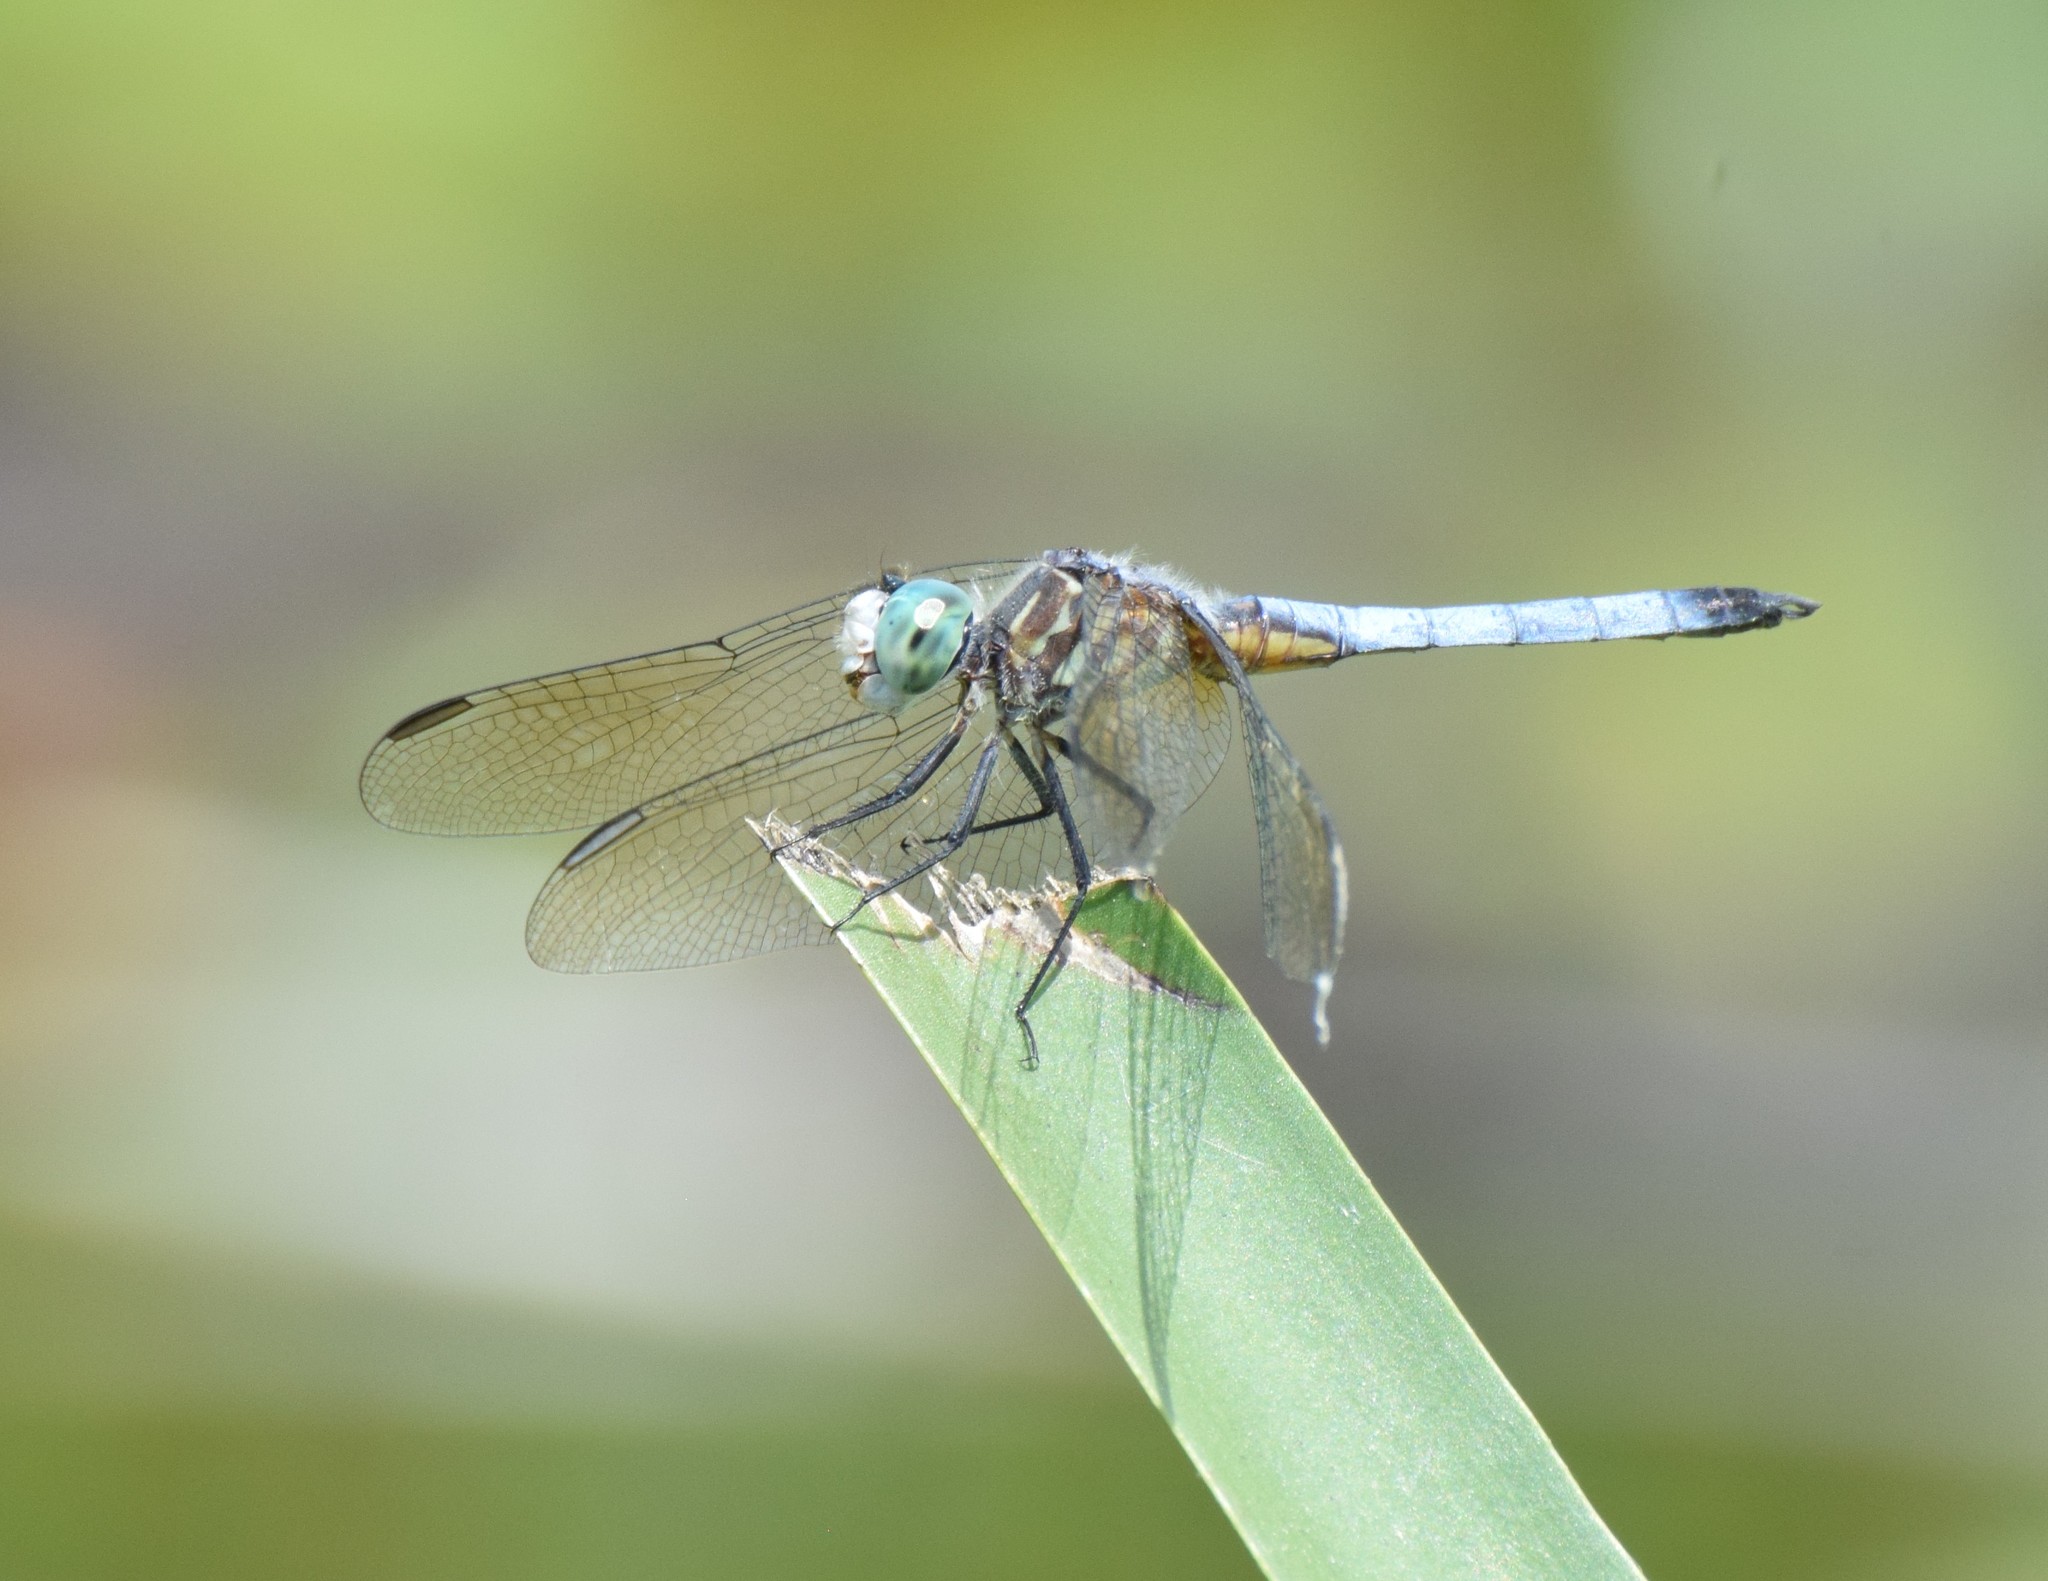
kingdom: Animalia
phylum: Arthropoda
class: Insecta
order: Odonata
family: Libellulidae
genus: Pachydiplax
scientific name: Pachydiplax longipennis
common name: Blue dasher
